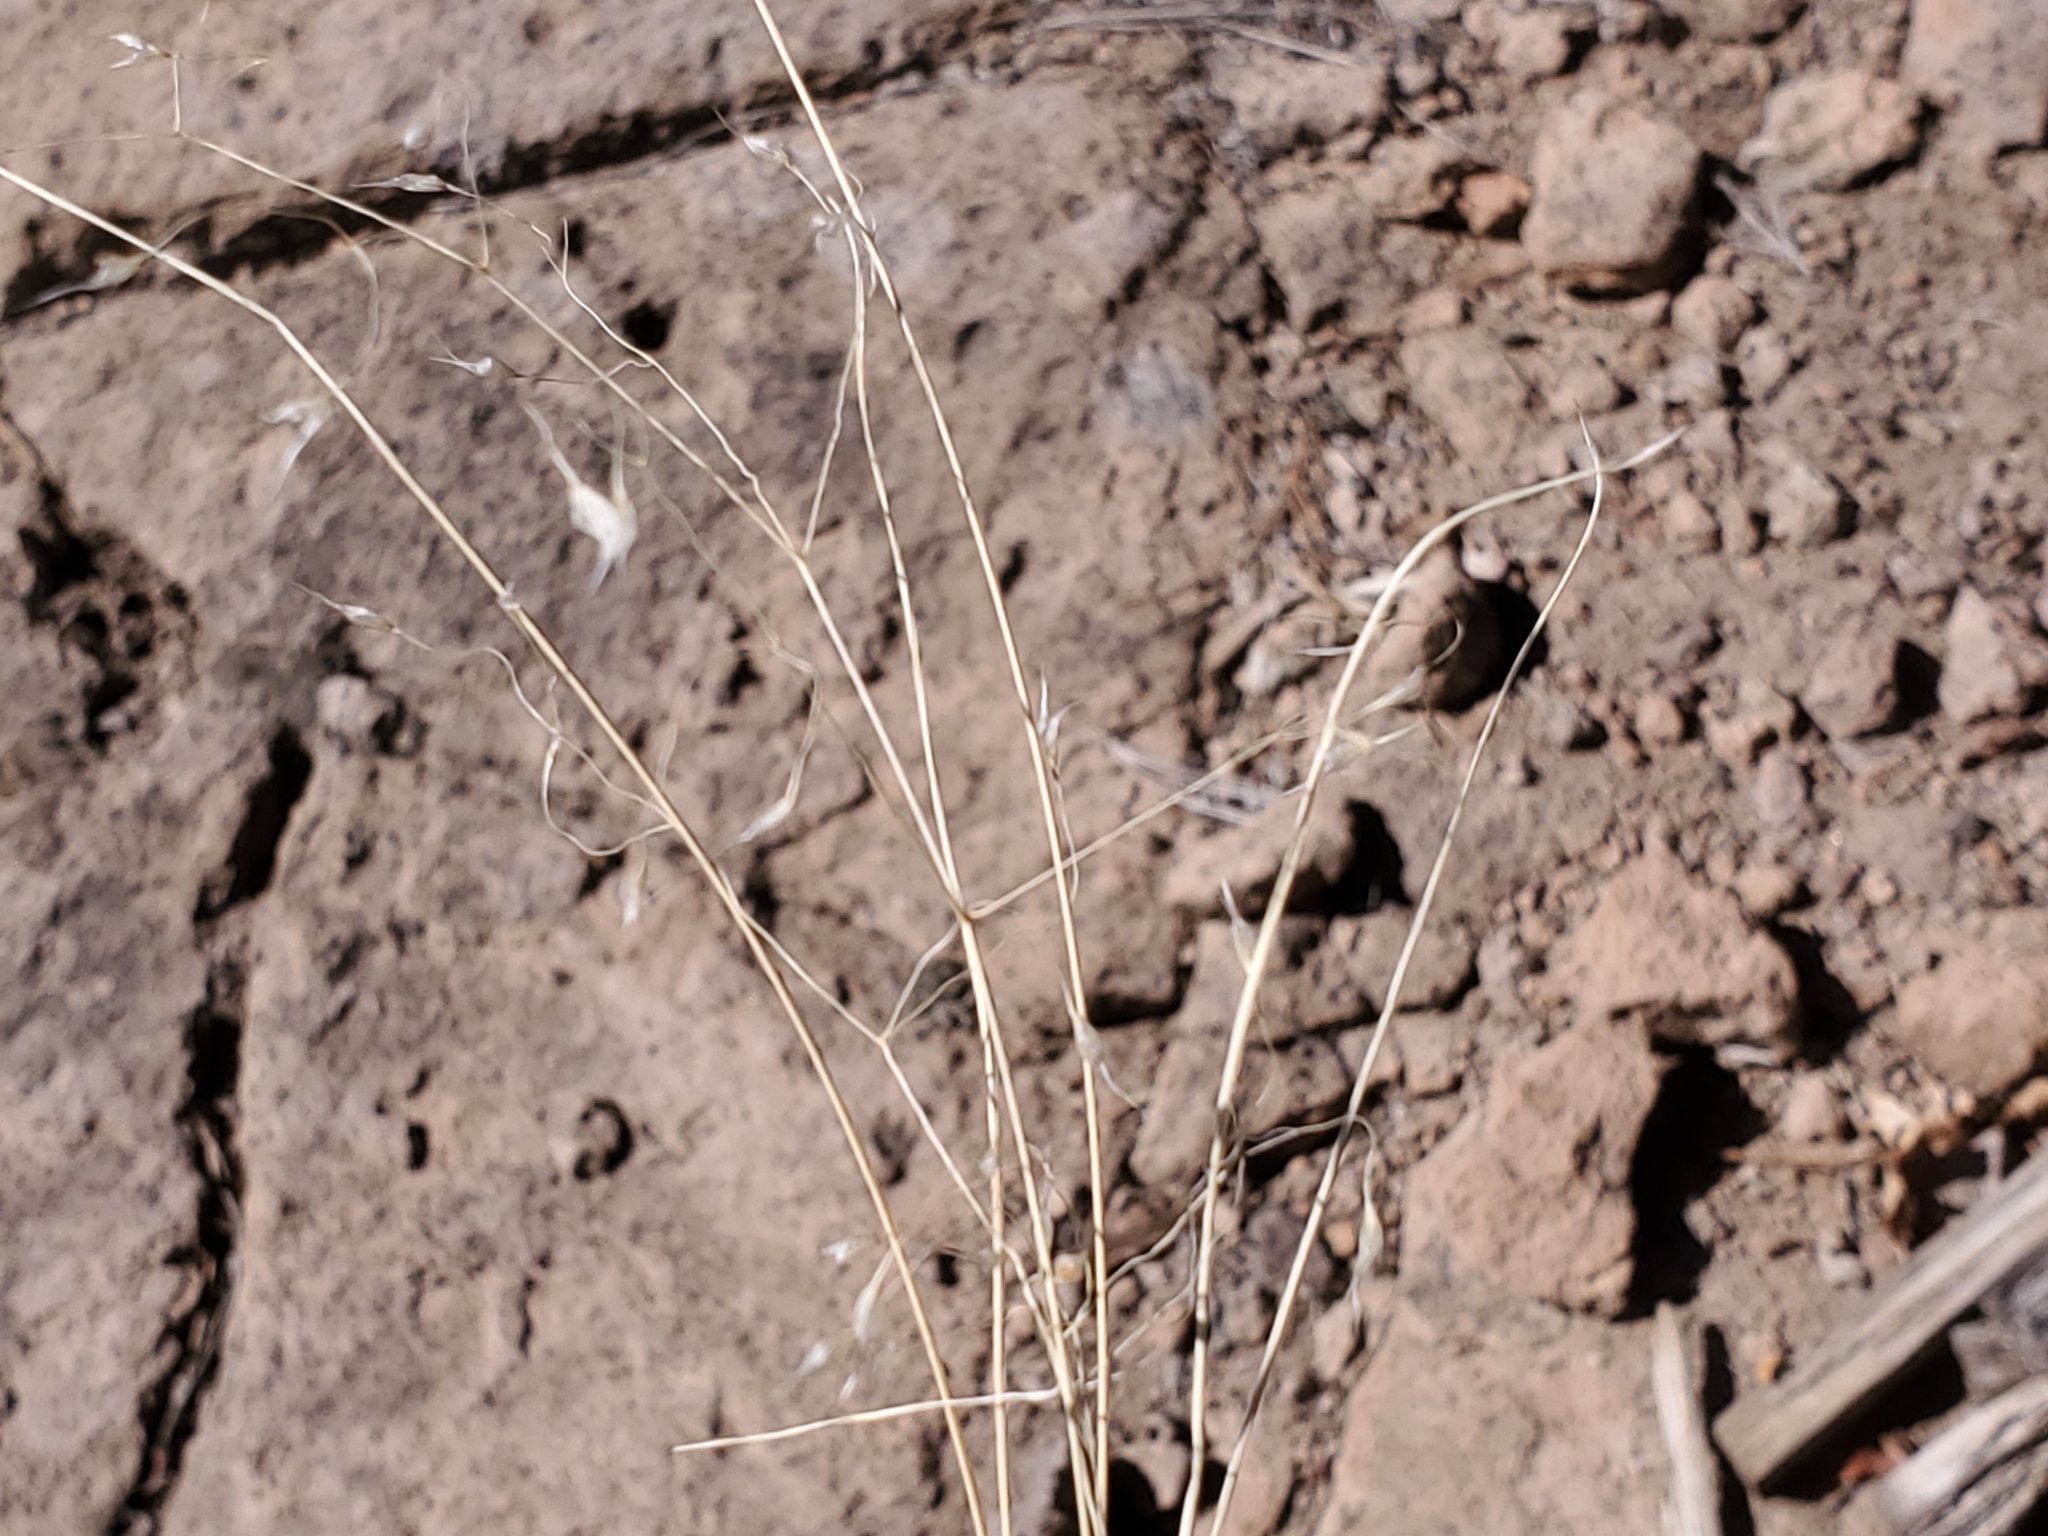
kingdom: Plantae
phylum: Tracheophyta
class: Liliopsida
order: Poales
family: Poaceae
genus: Eriocoma
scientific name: Eriocoma hymenoides
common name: Indian mountain ricegrass
